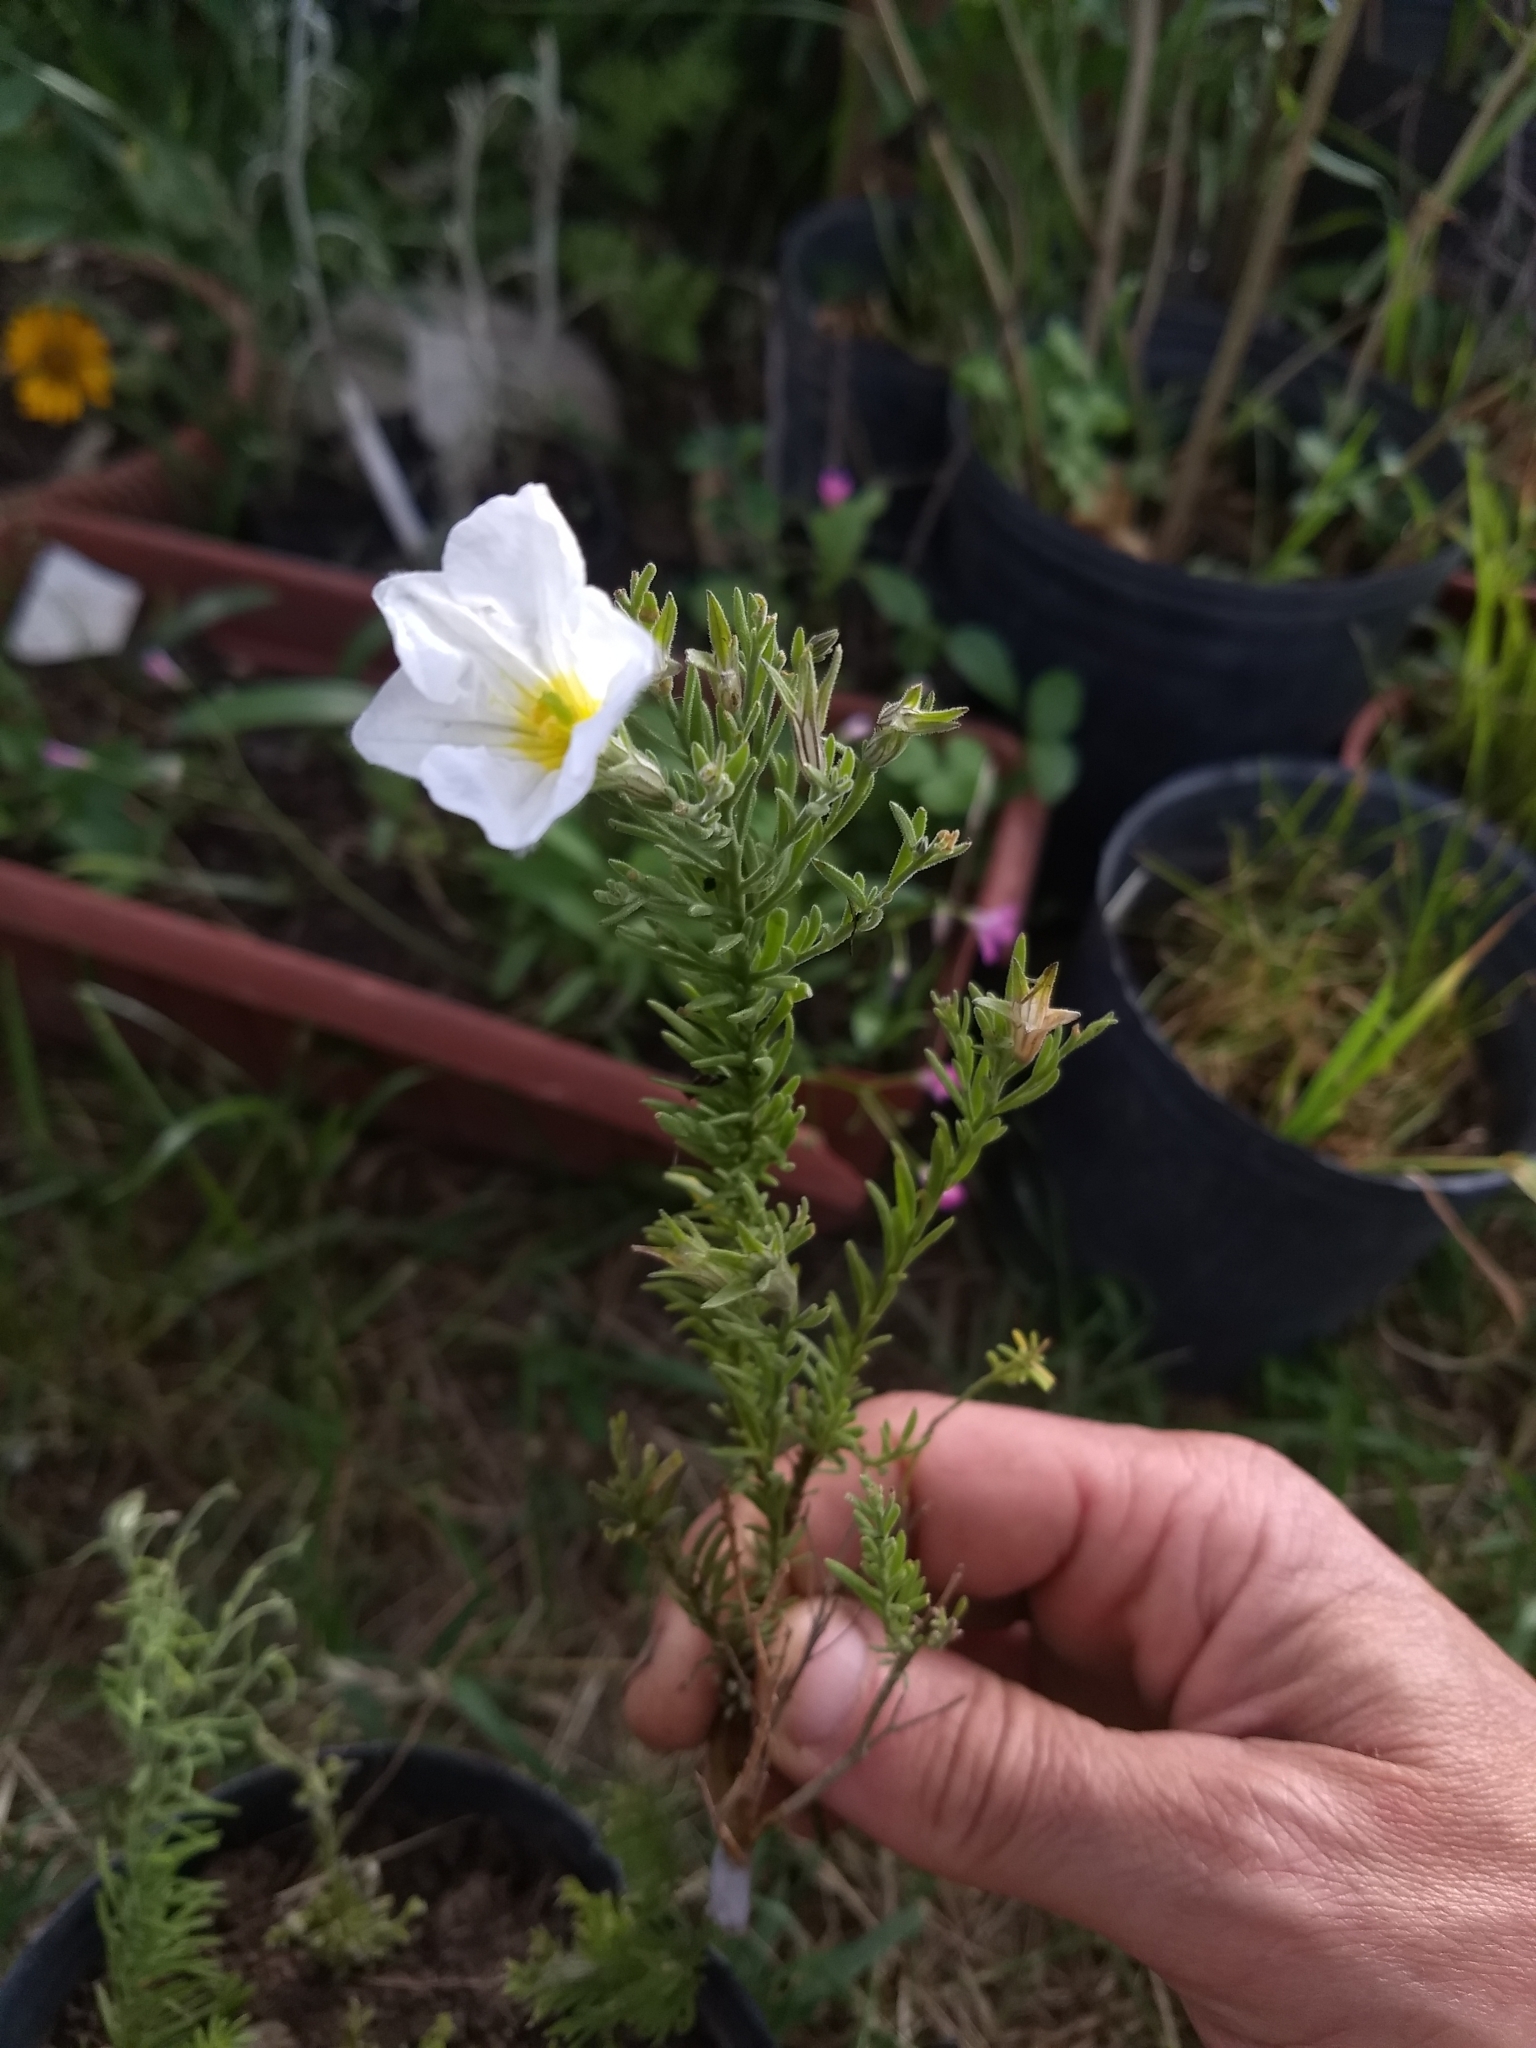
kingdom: Plantae
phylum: Tracheophyta
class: Magnoliopsida
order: Solanales
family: Solanaceae
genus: Nierembergia
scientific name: Nierembergia tandilensis
